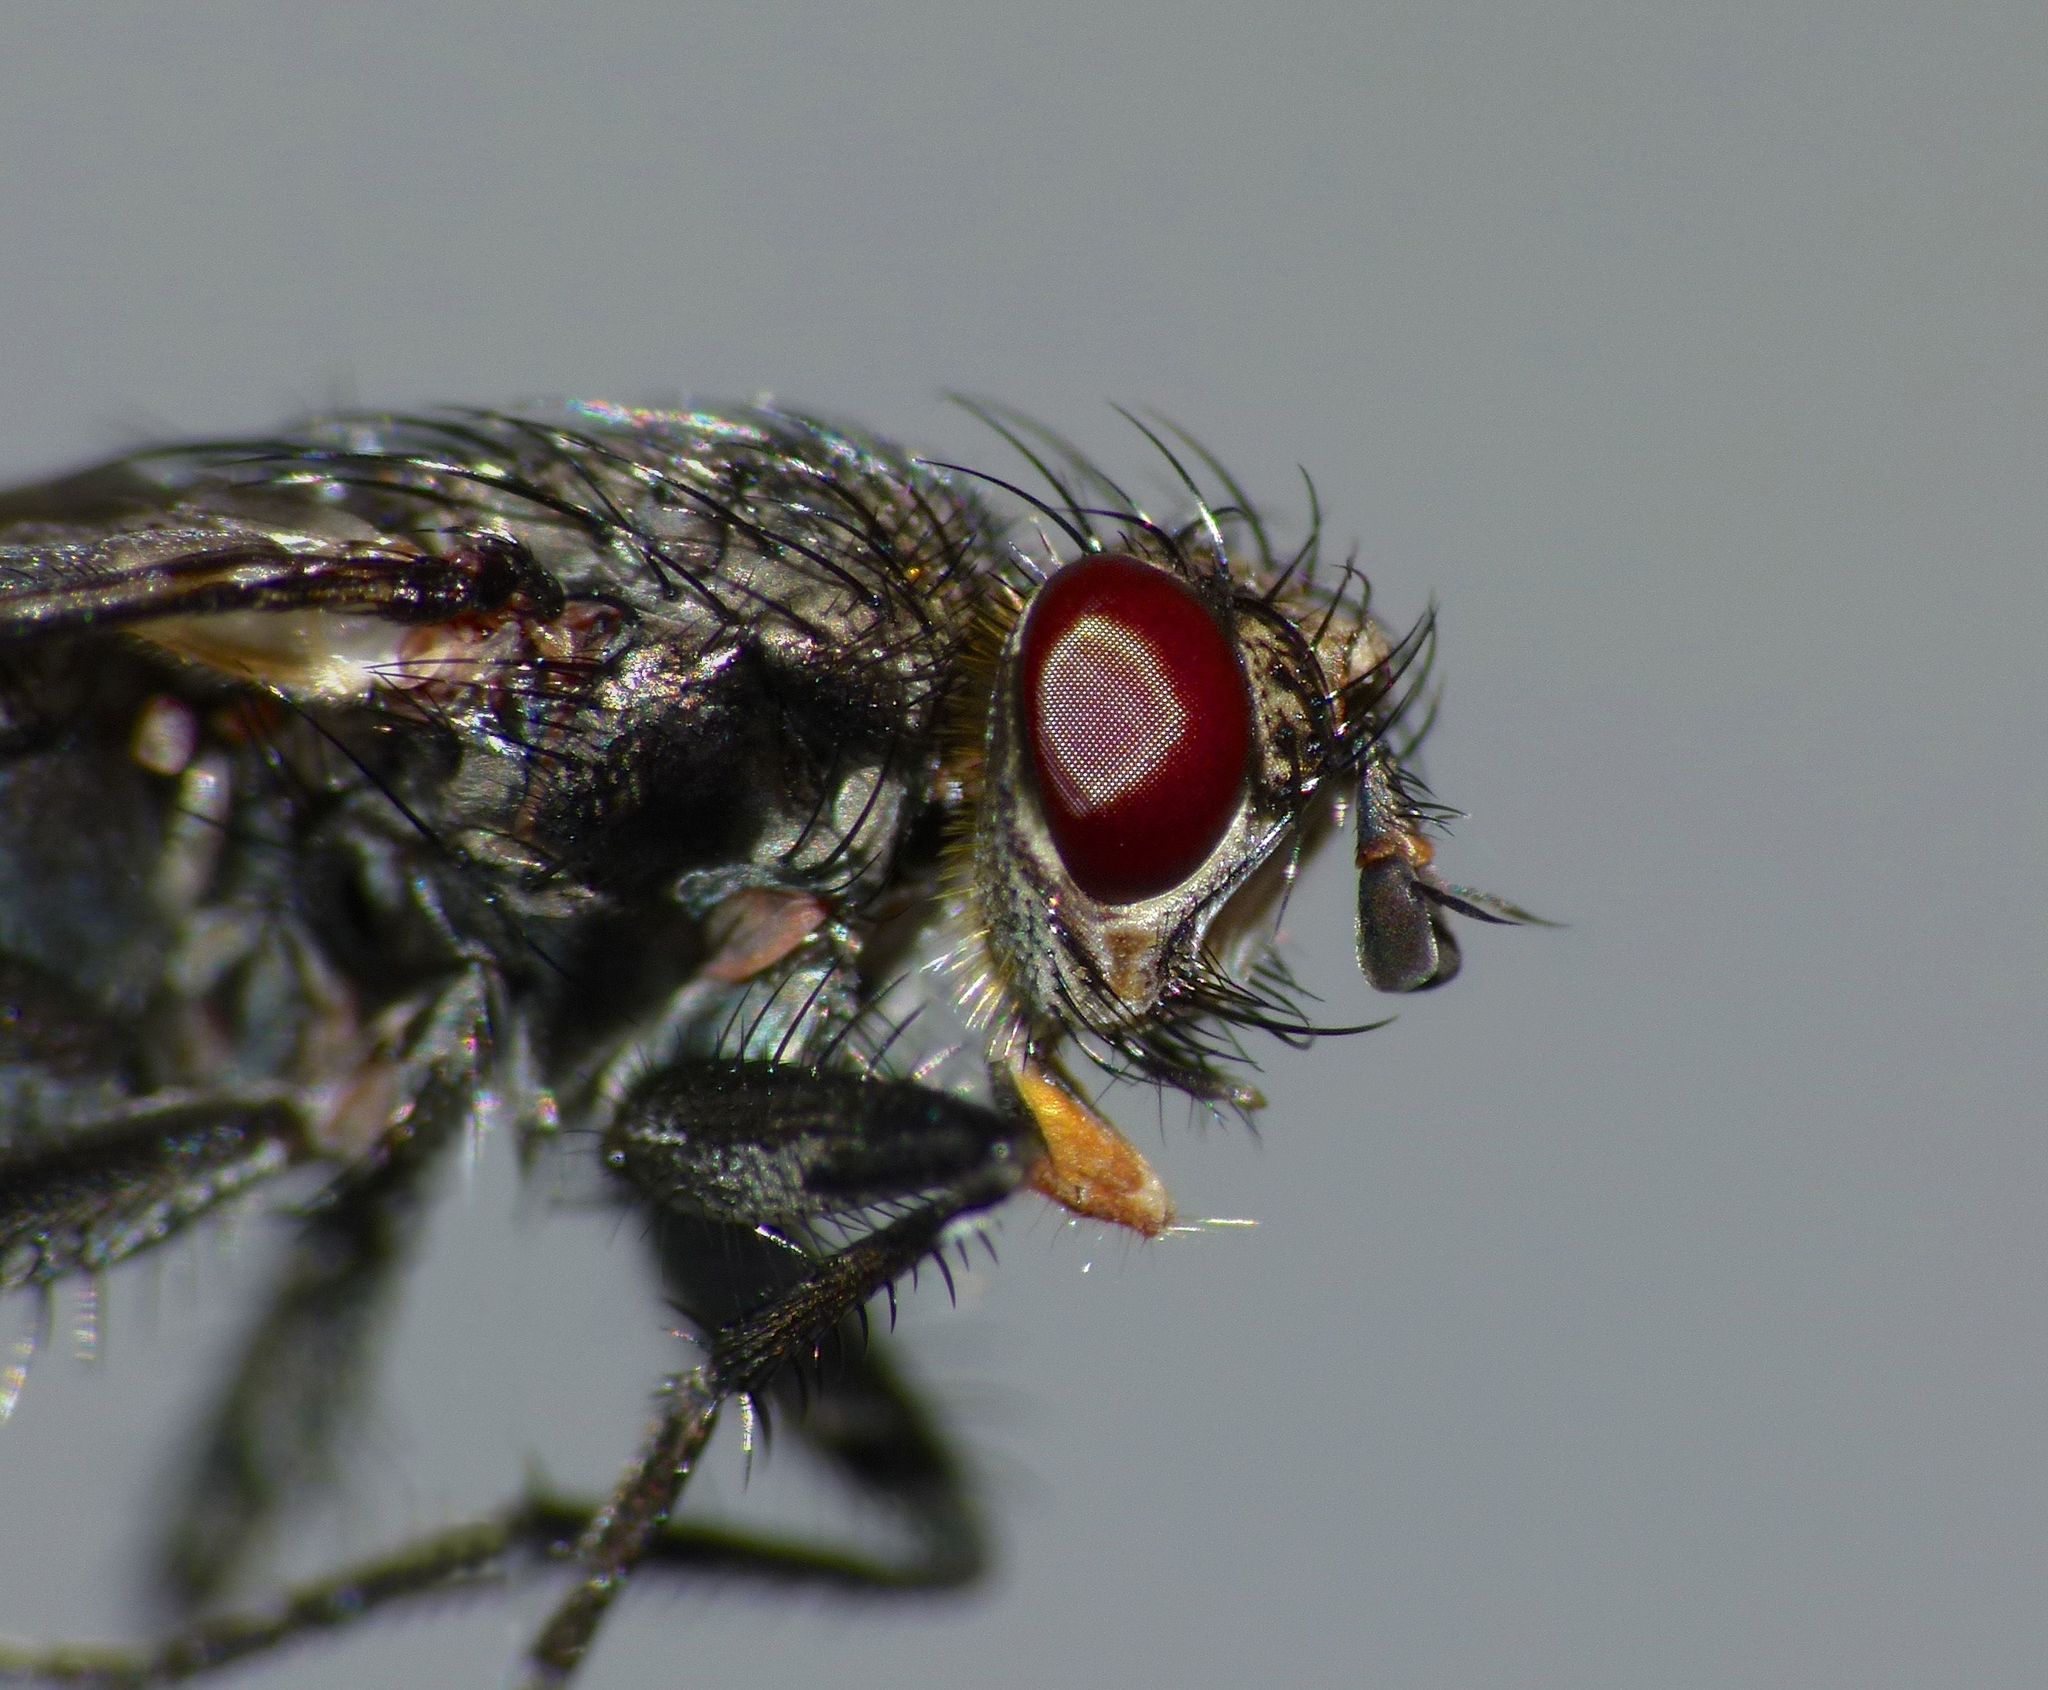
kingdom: Animalia
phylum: Arthropoda
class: Insecta
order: Diptera
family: Tachinidae
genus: Plagiomyia
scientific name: Plagiomyia longipes
